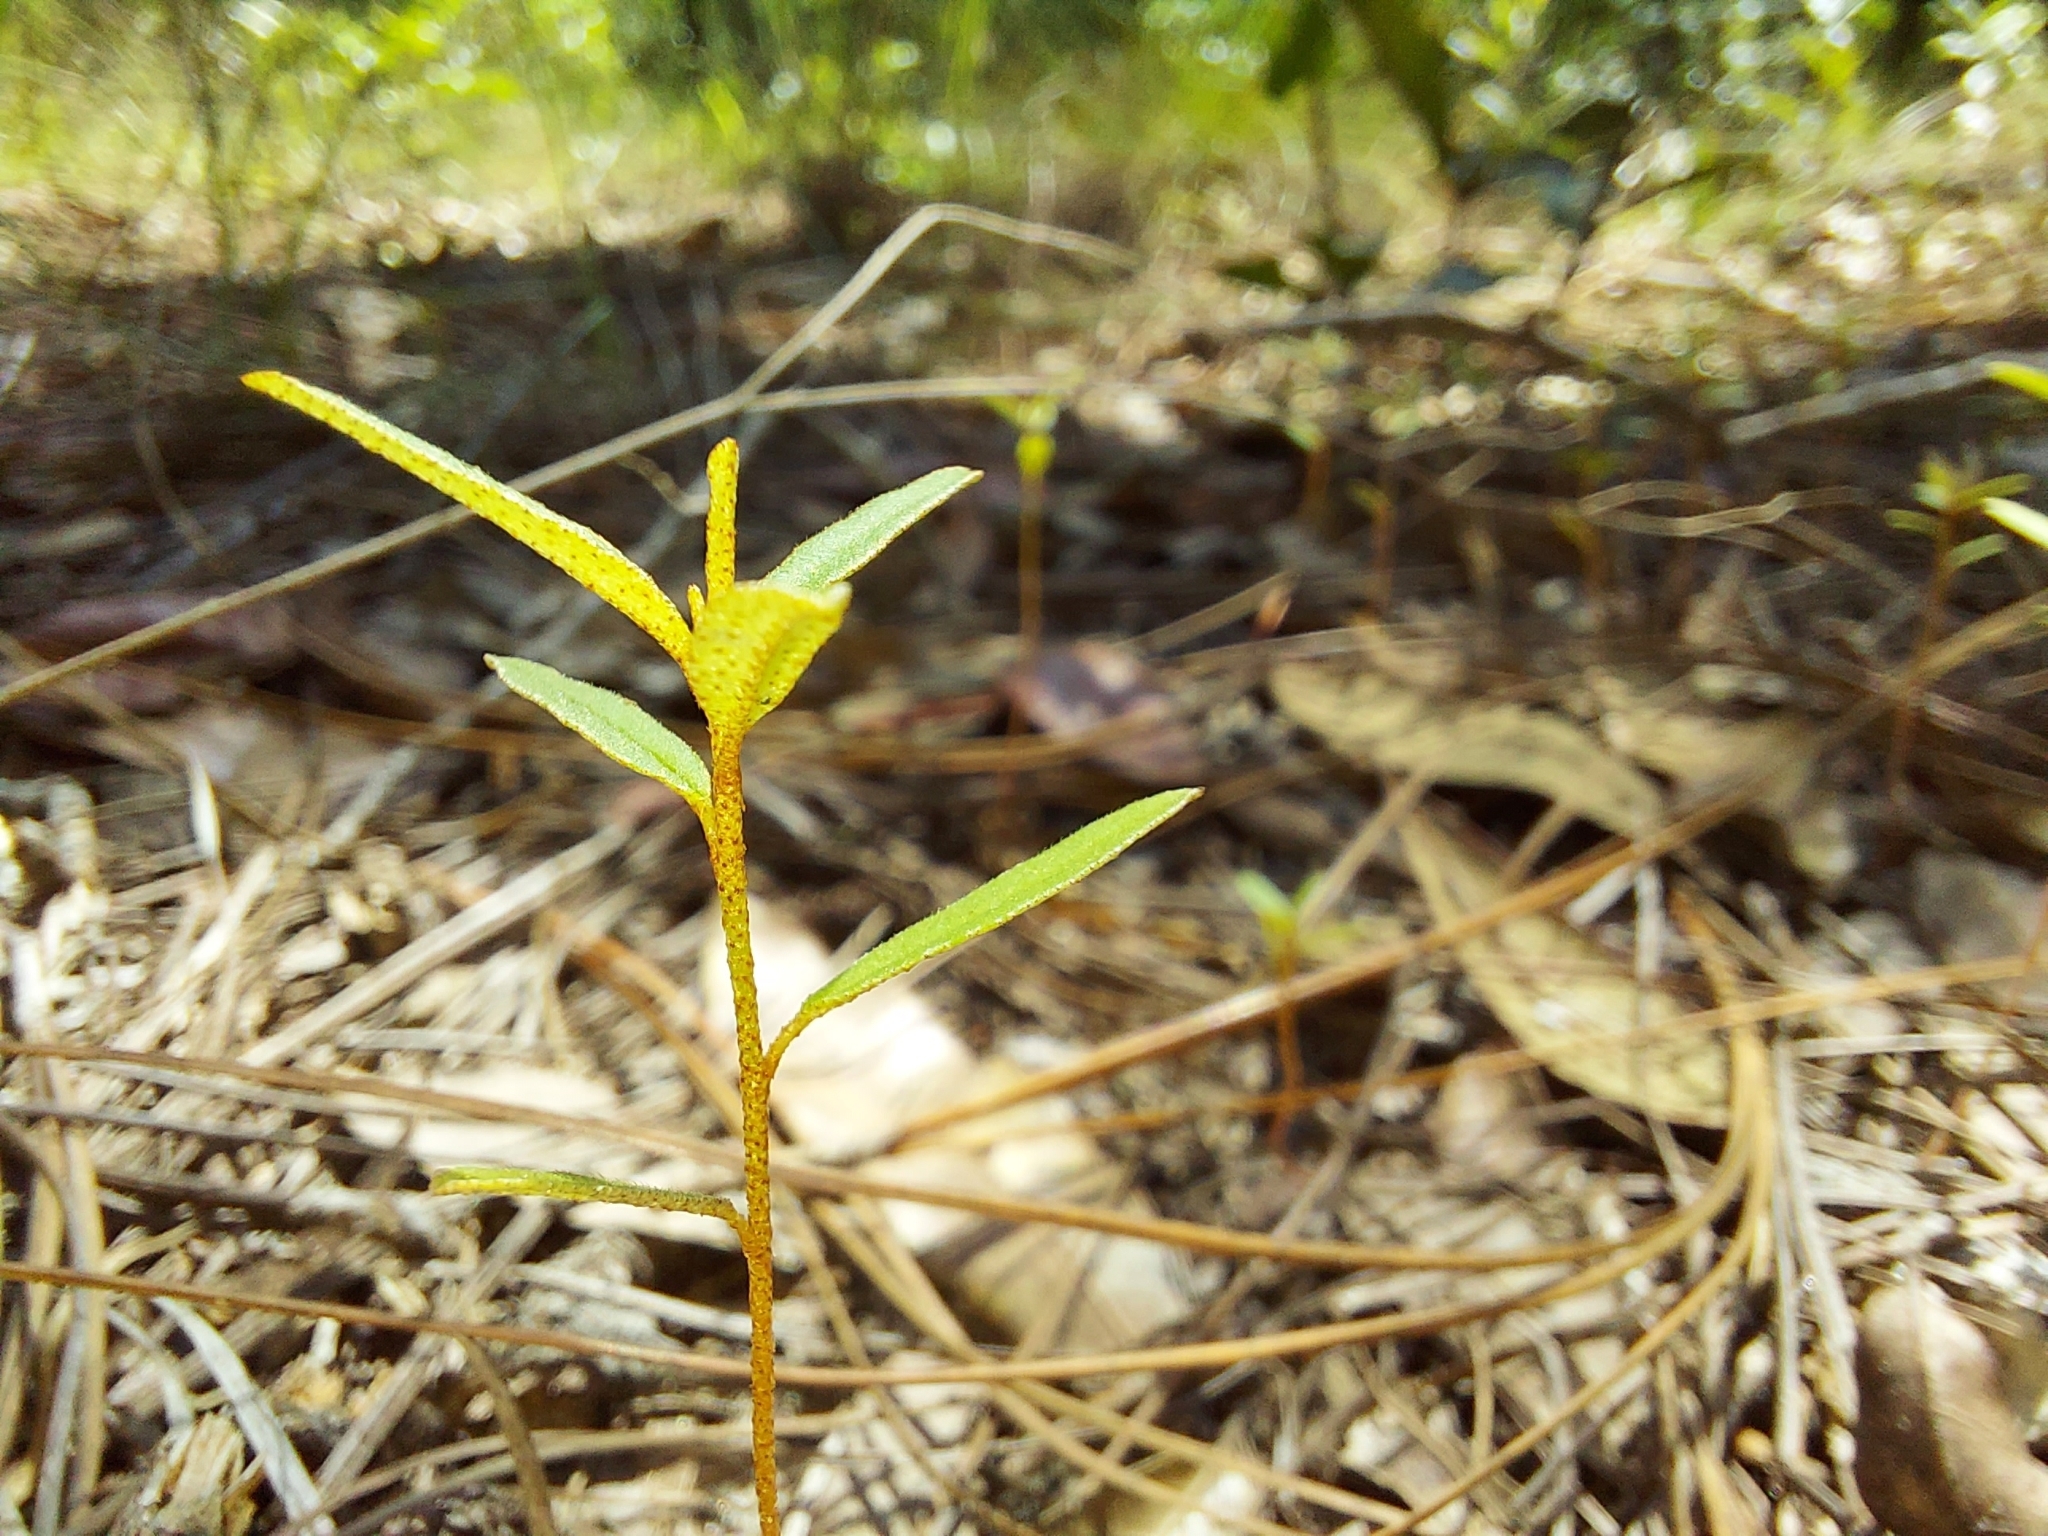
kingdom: Plantae
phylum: Tracheophyta
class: Magnoliopsida
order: Malpighiales
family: Euphorbiaceae
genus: Croton
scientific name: Croton michauxii
